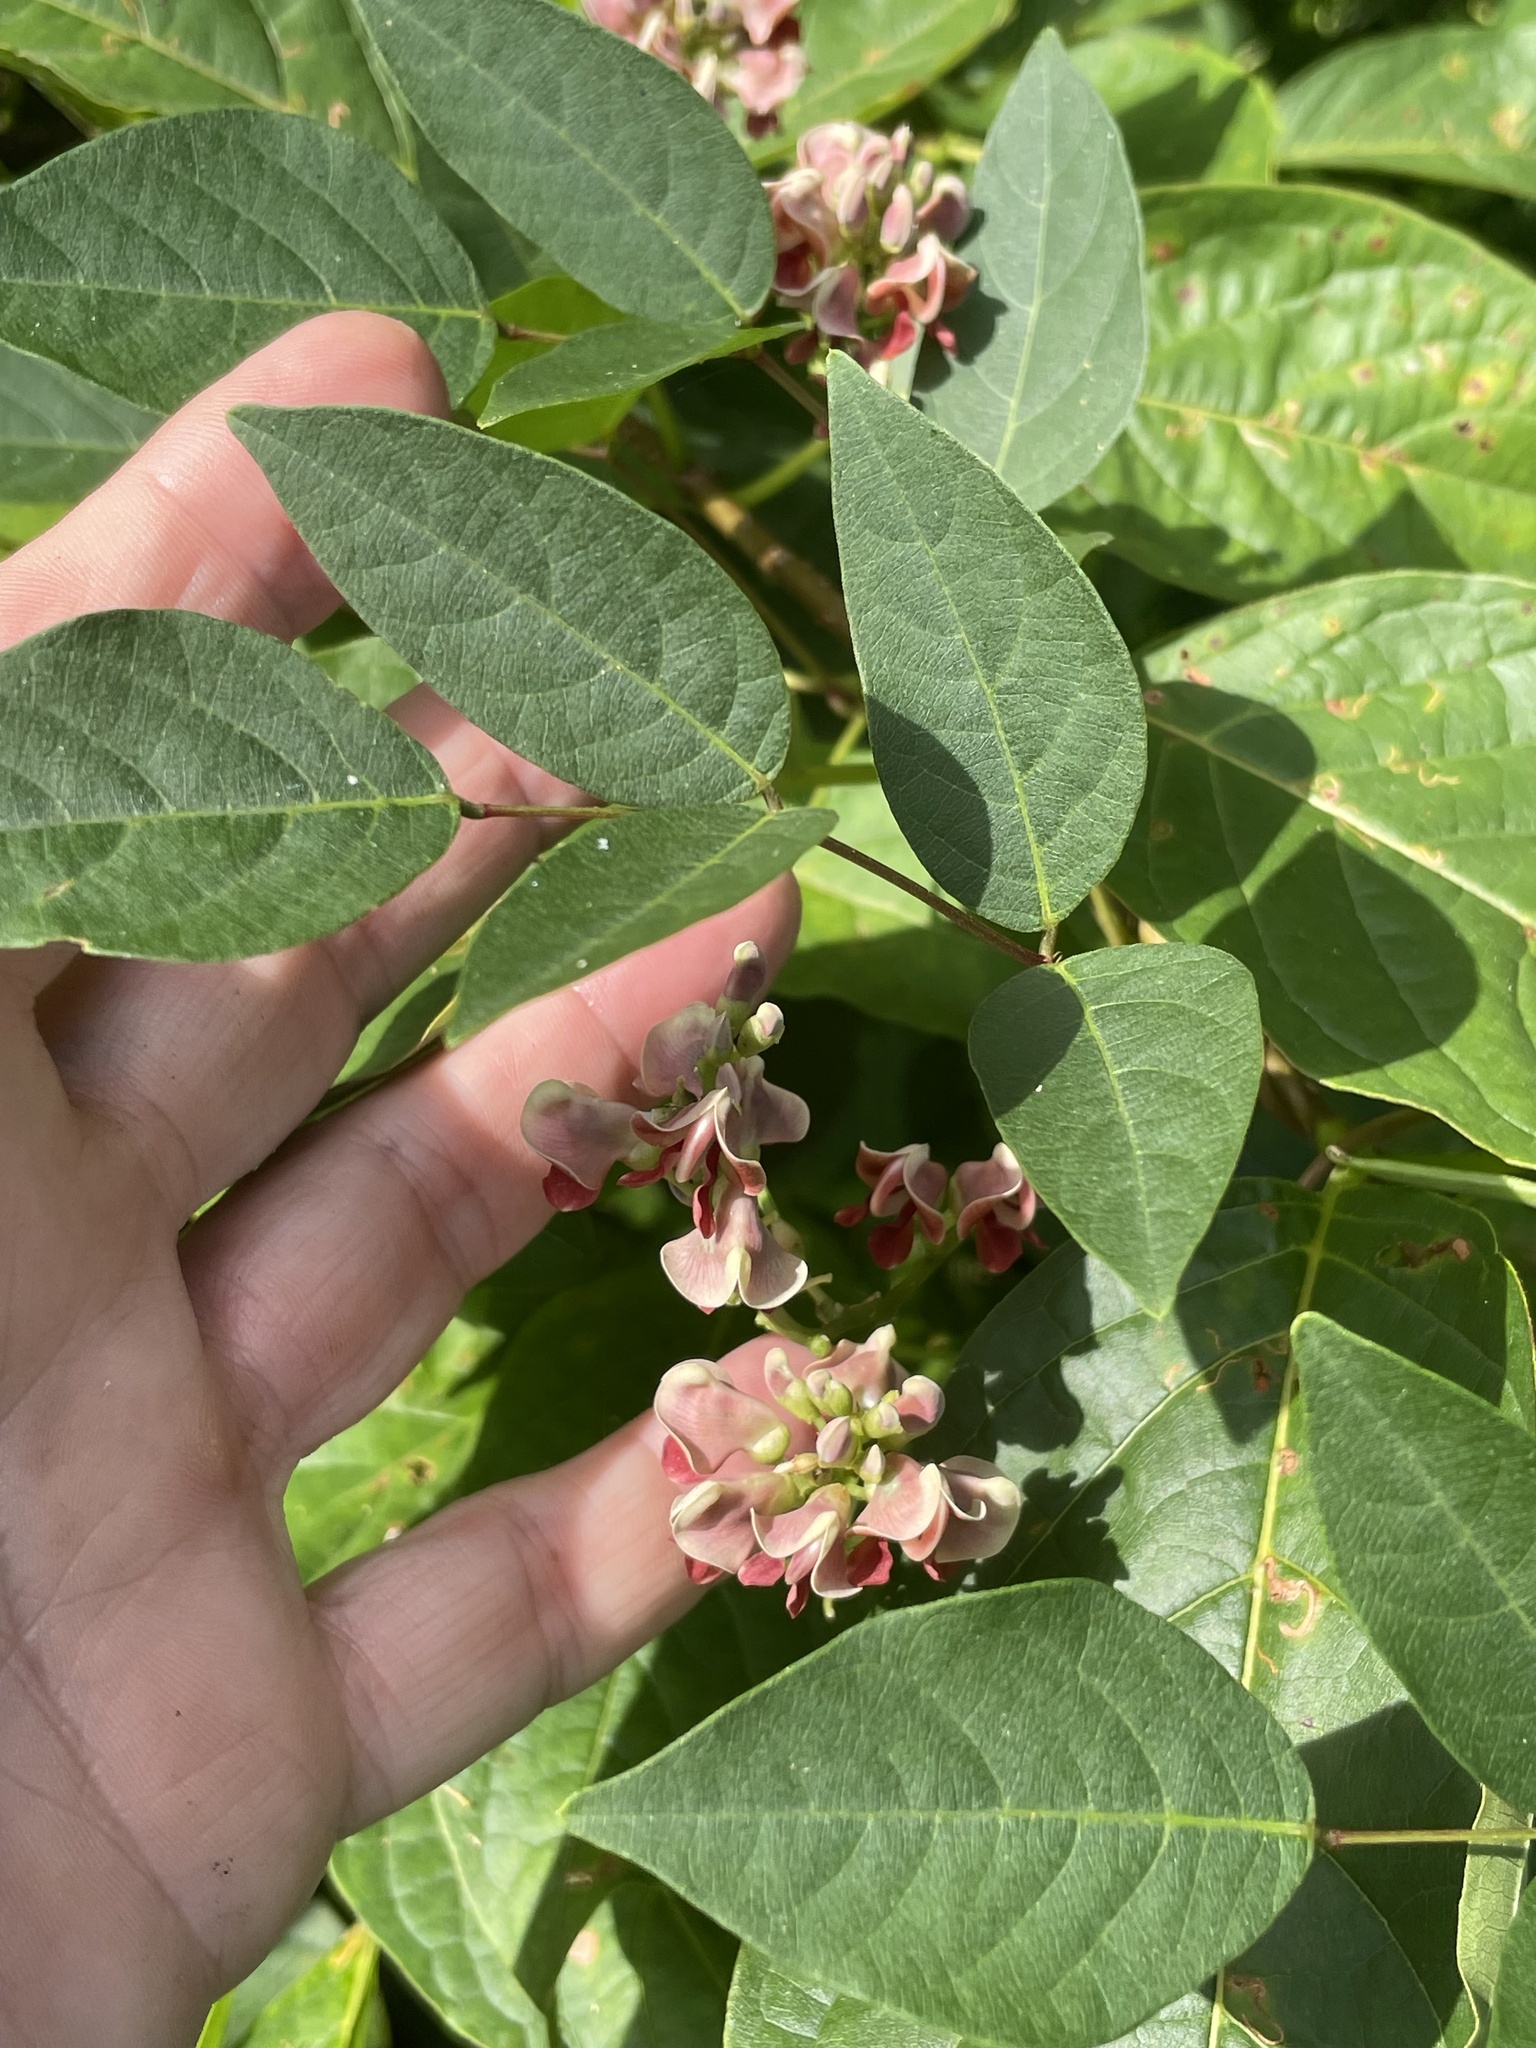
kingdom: Plantae
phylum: Tracheophyta
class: Magnoliopsida
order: Fabales
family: Fabaceae
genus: Apios
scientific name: Apios americana
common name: American potato-bean
